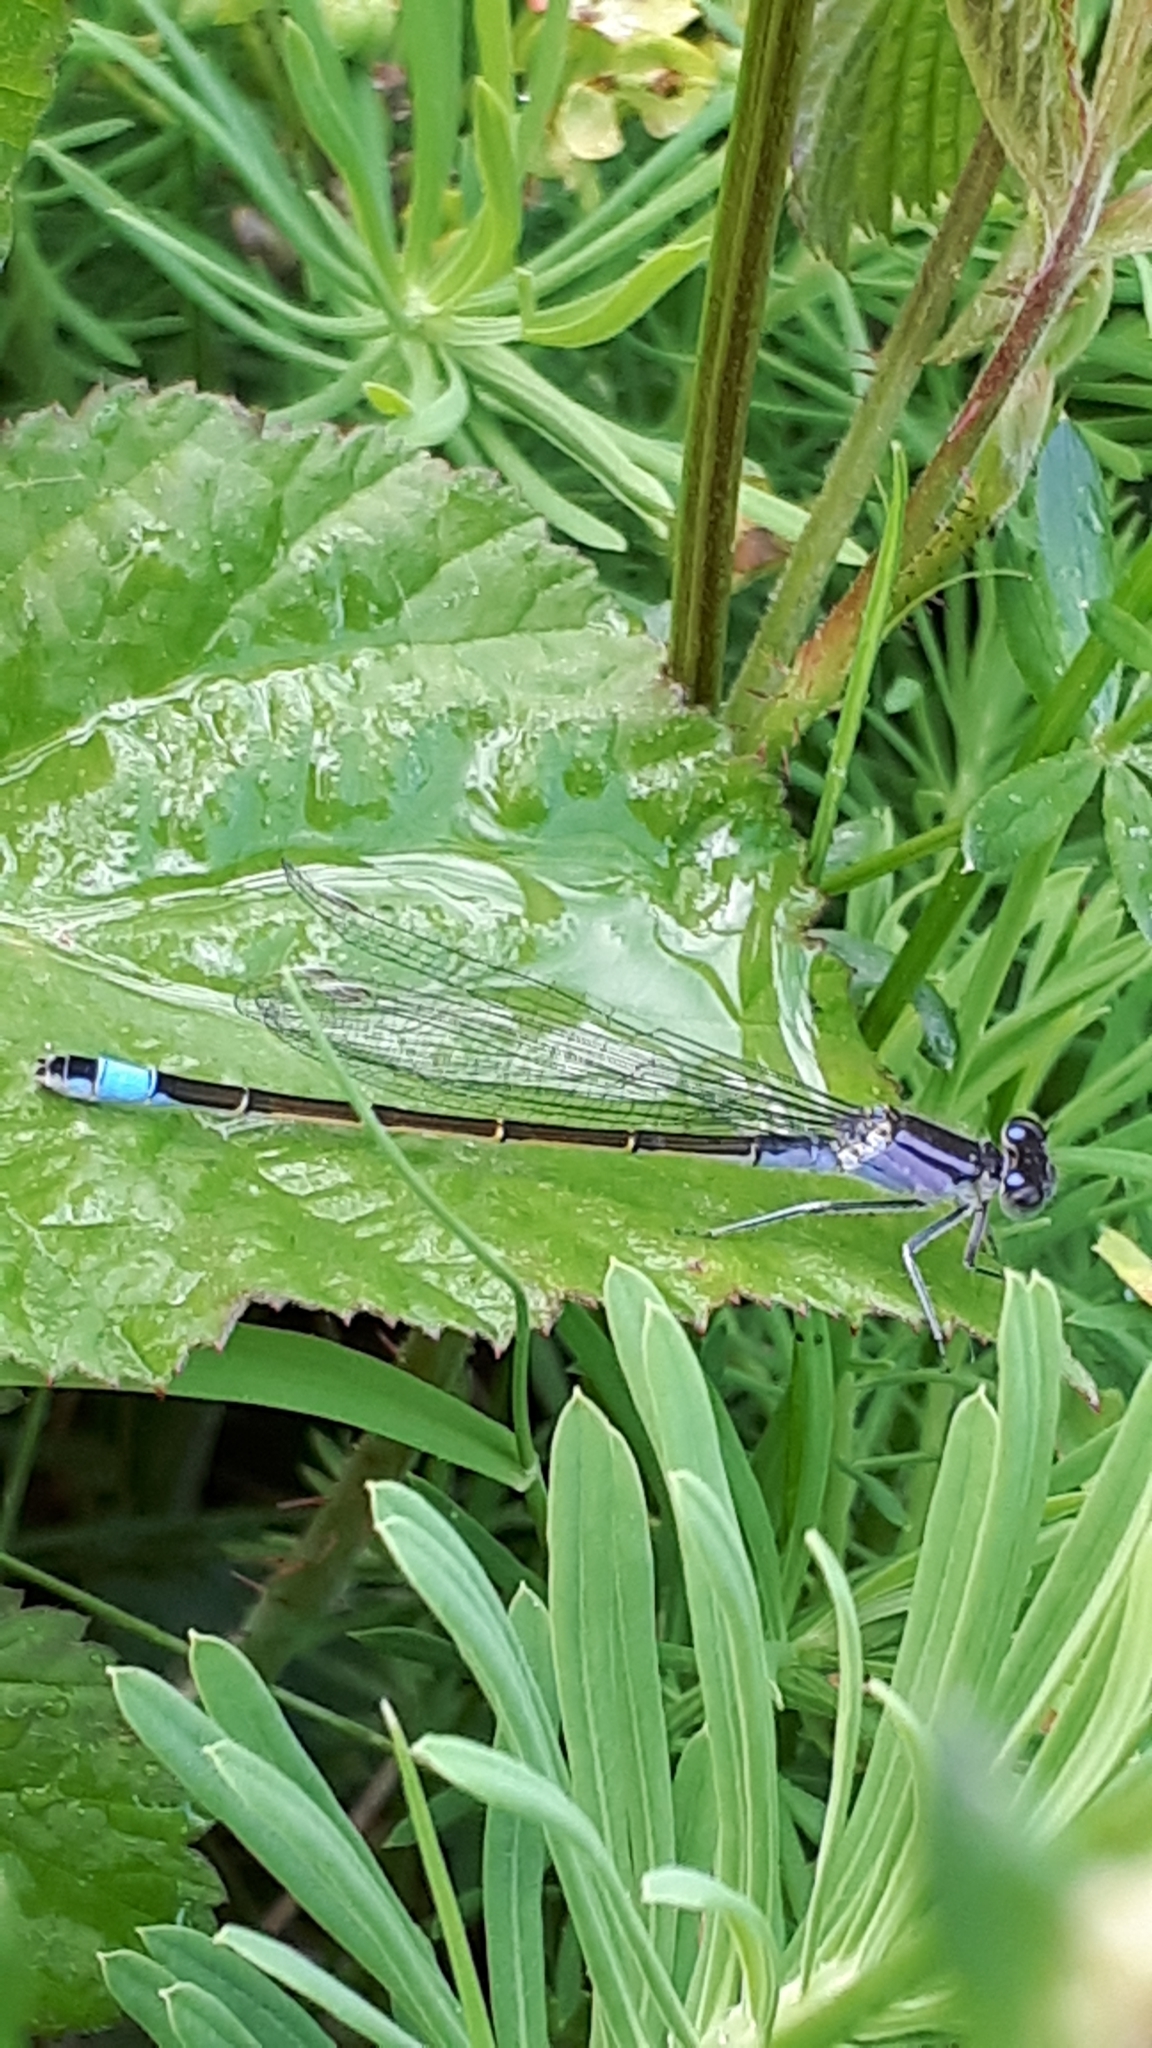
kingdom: Animalia
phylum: Arthropoda
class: Insecta
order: Odonata
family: Coenagrionidae
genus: Ischnura
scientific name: Ischnura elegans
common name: Blue-tailed damselfly
